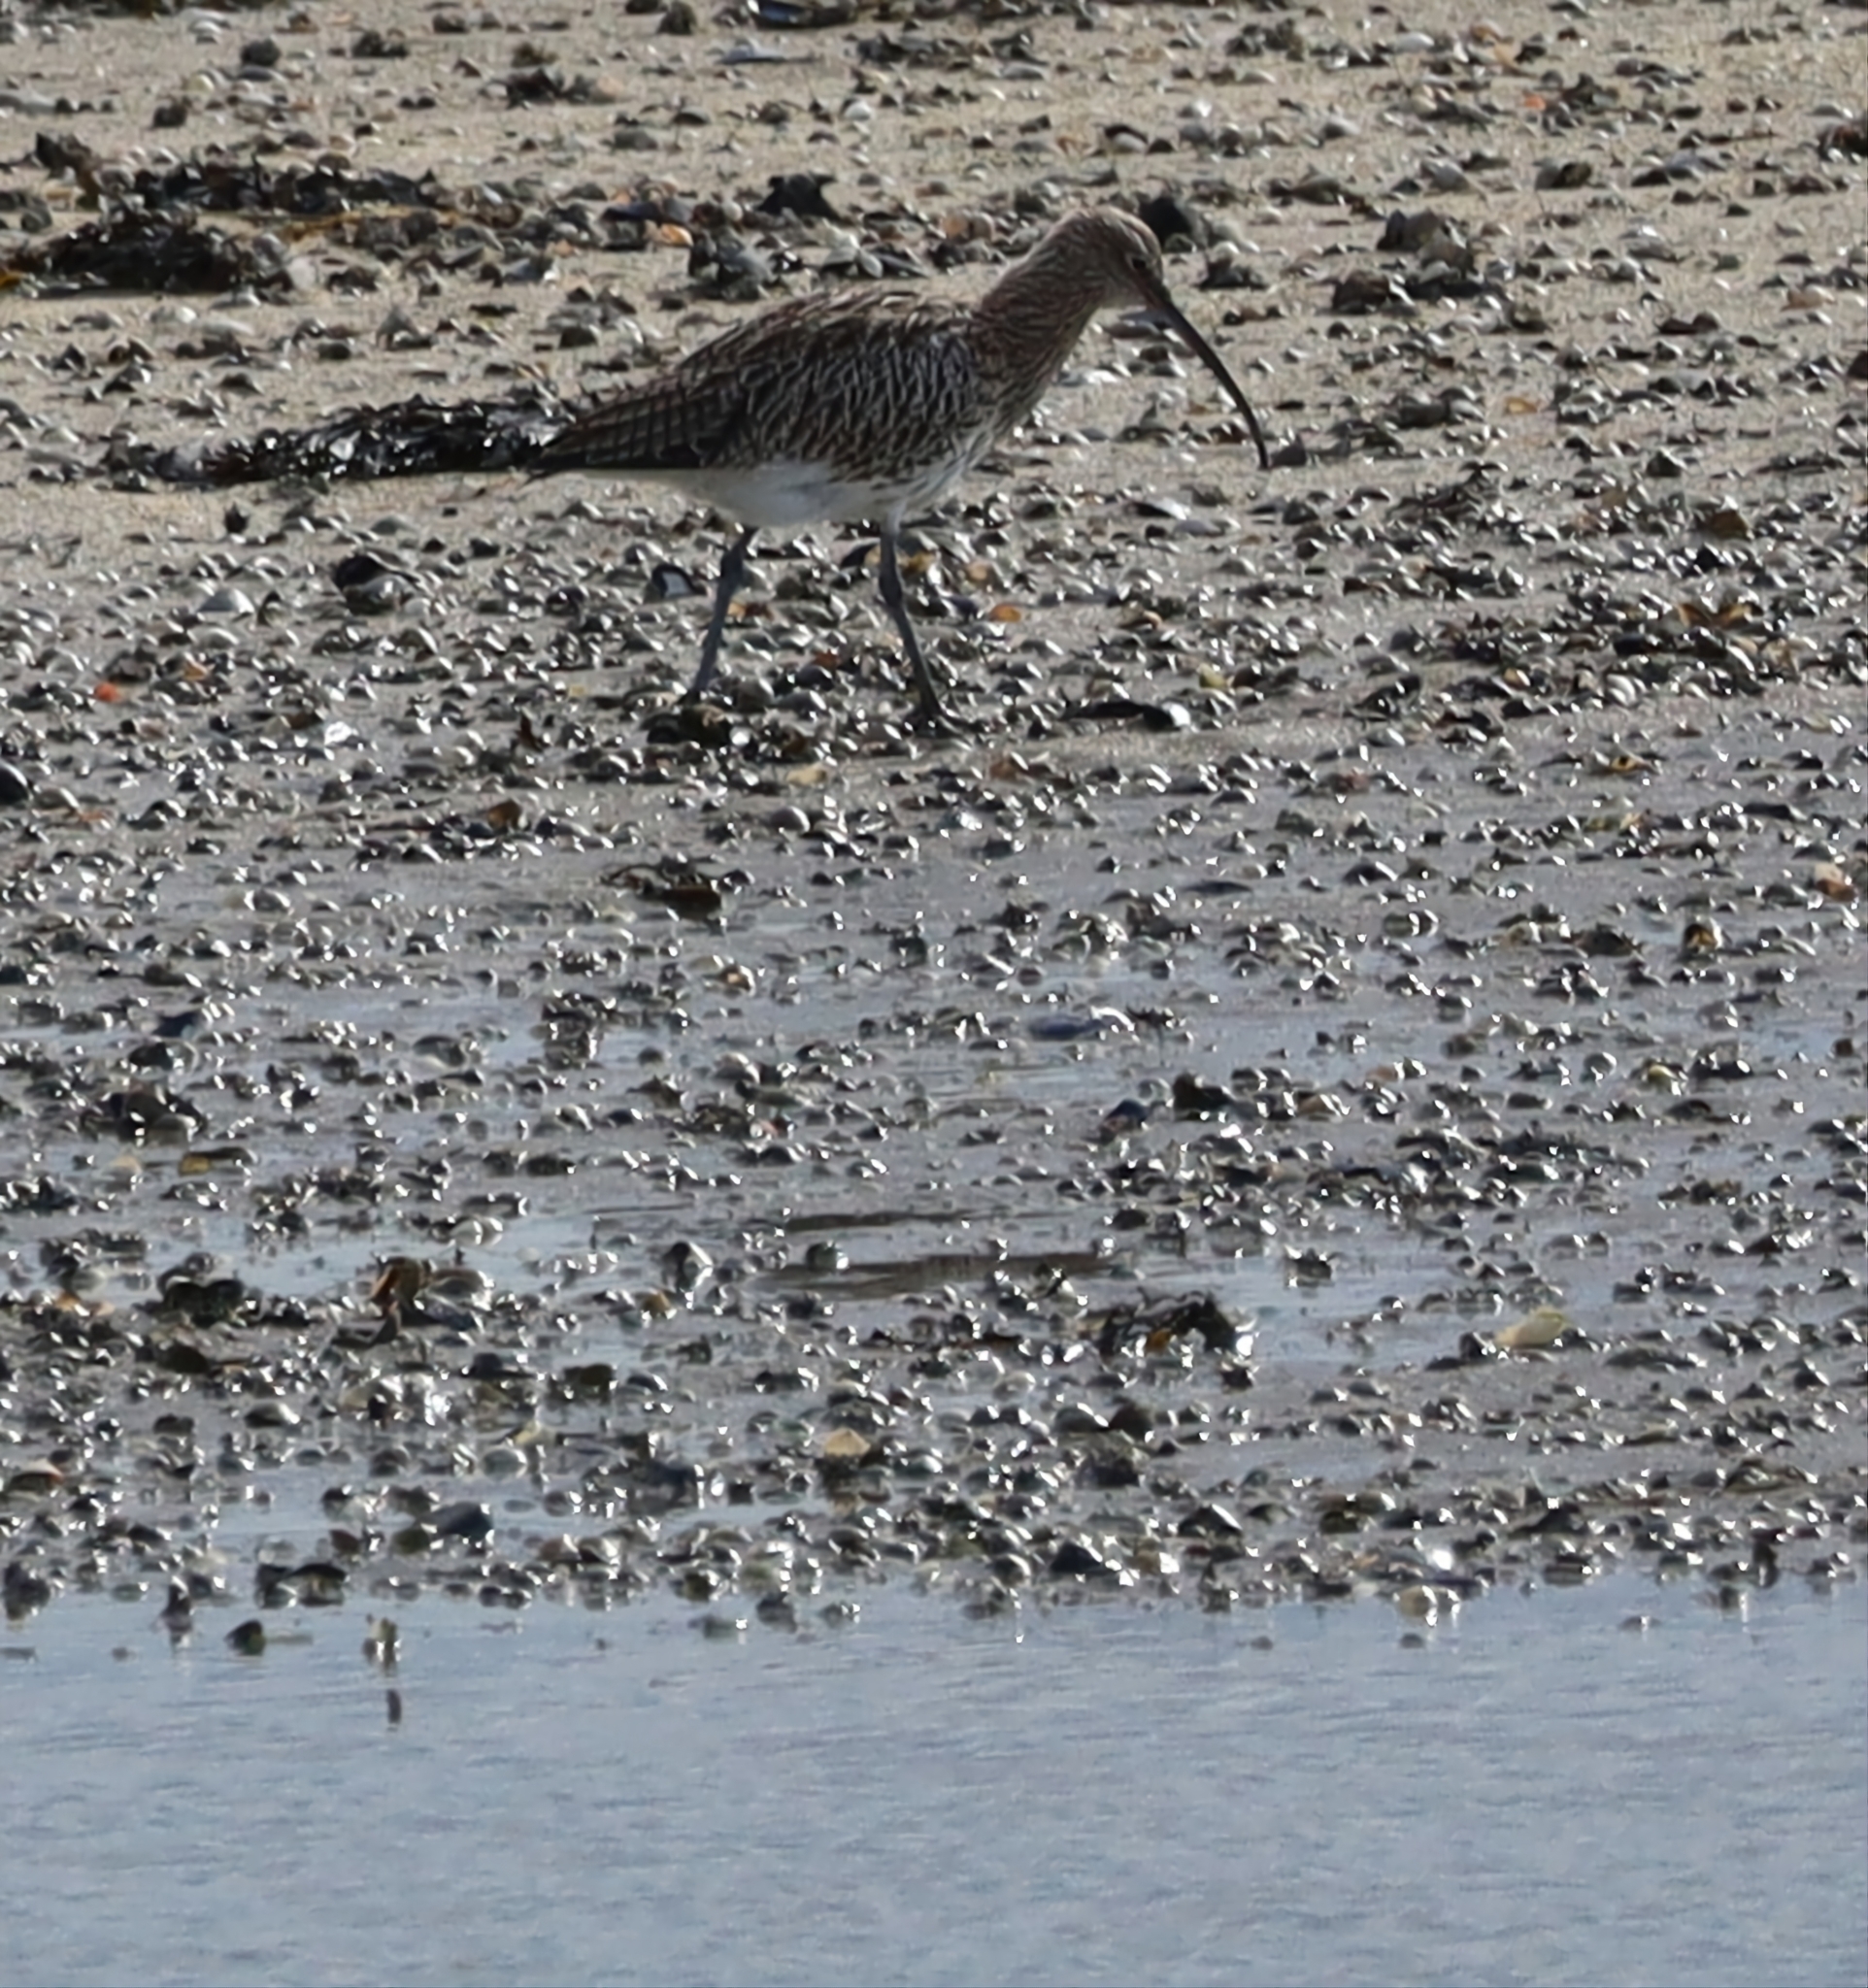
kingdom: Animalia
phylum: Chordata
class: Aves
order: Charadriiformes
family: Scolopacidae
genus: Numenius
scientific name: Numenius arquata
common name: Eurasian curlew
